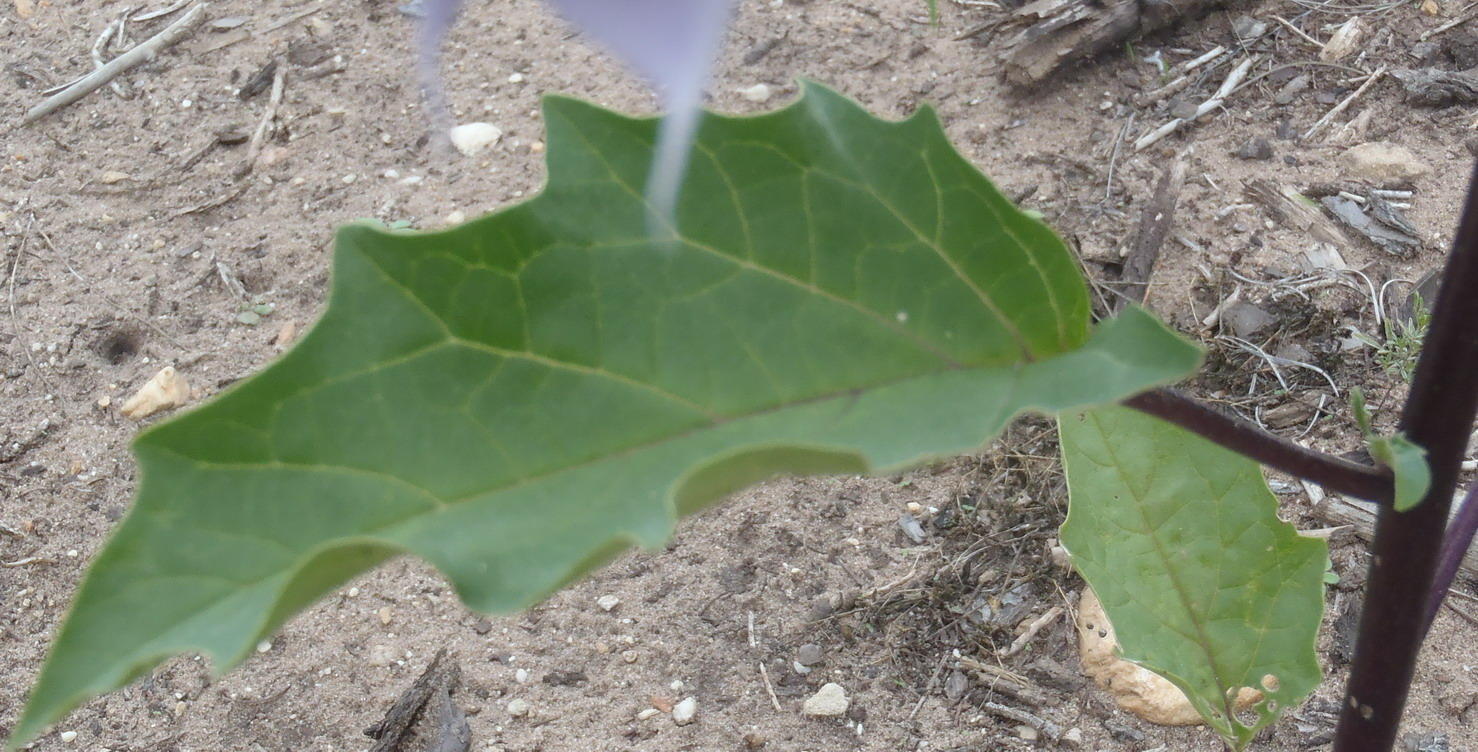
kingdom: Plantae
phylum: Tracheophyta
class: Magnoliopsida
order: Solanales
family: Solanaceae
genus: Datura
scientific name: Datura stramonium
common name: Thorn-apple
